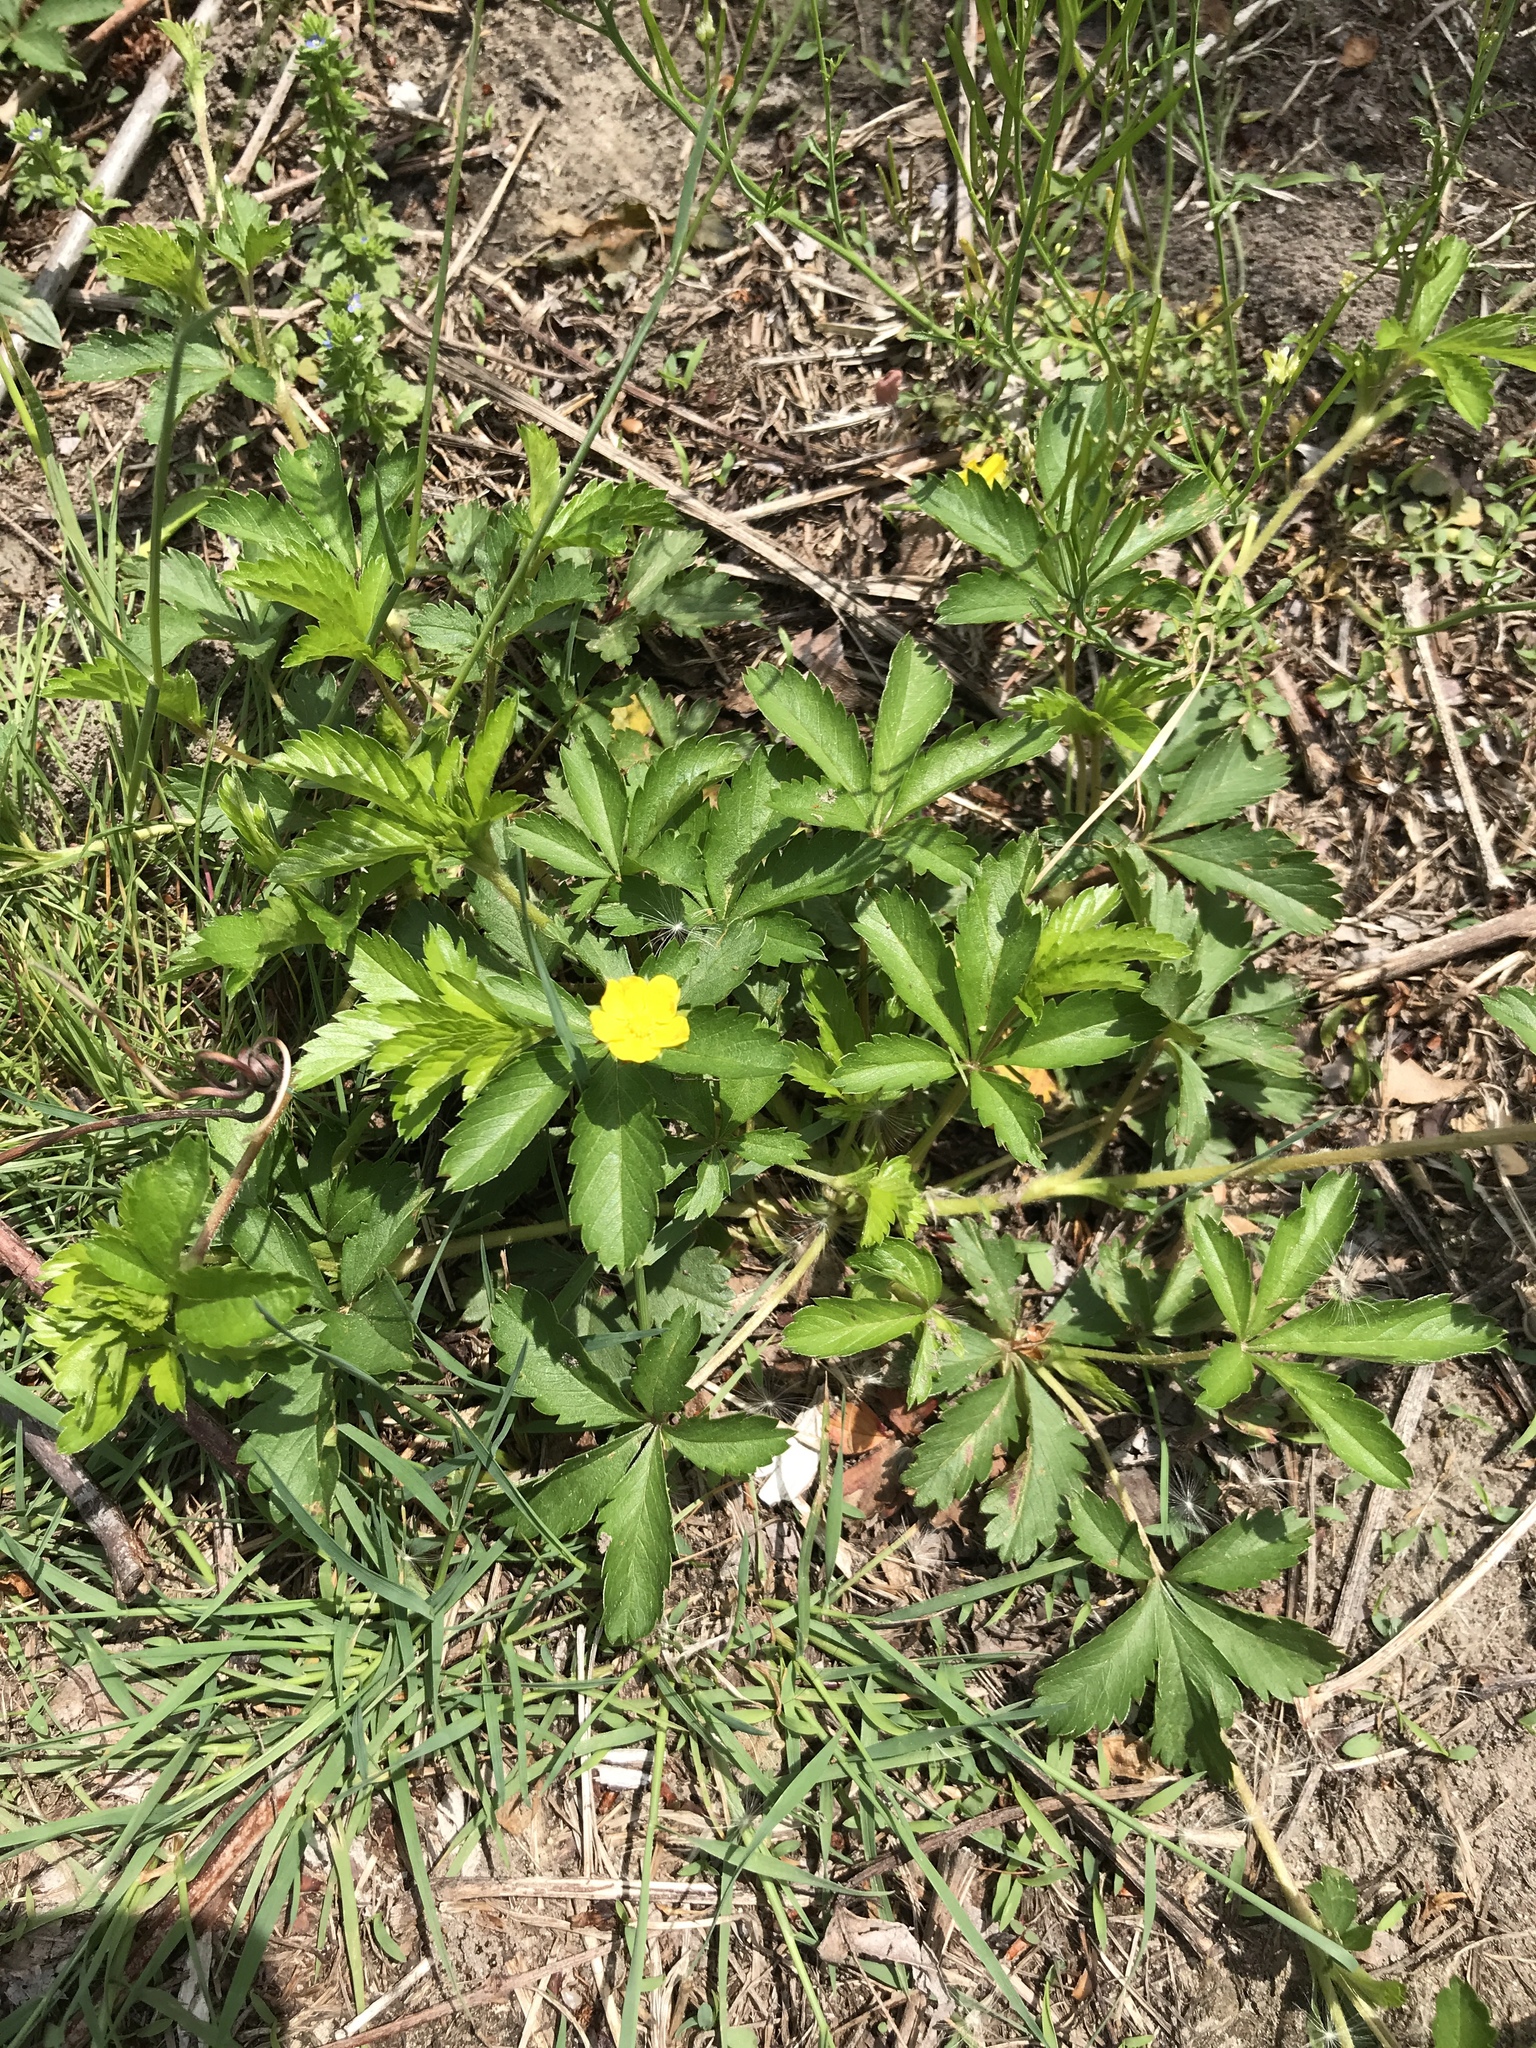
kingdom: Plantae
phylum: Tracheophyta
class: Magnoliopsida
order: Rosales
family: Rosaceae
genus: Potentilla
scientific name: Potentilla simplex
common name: Old field cinquefoil
